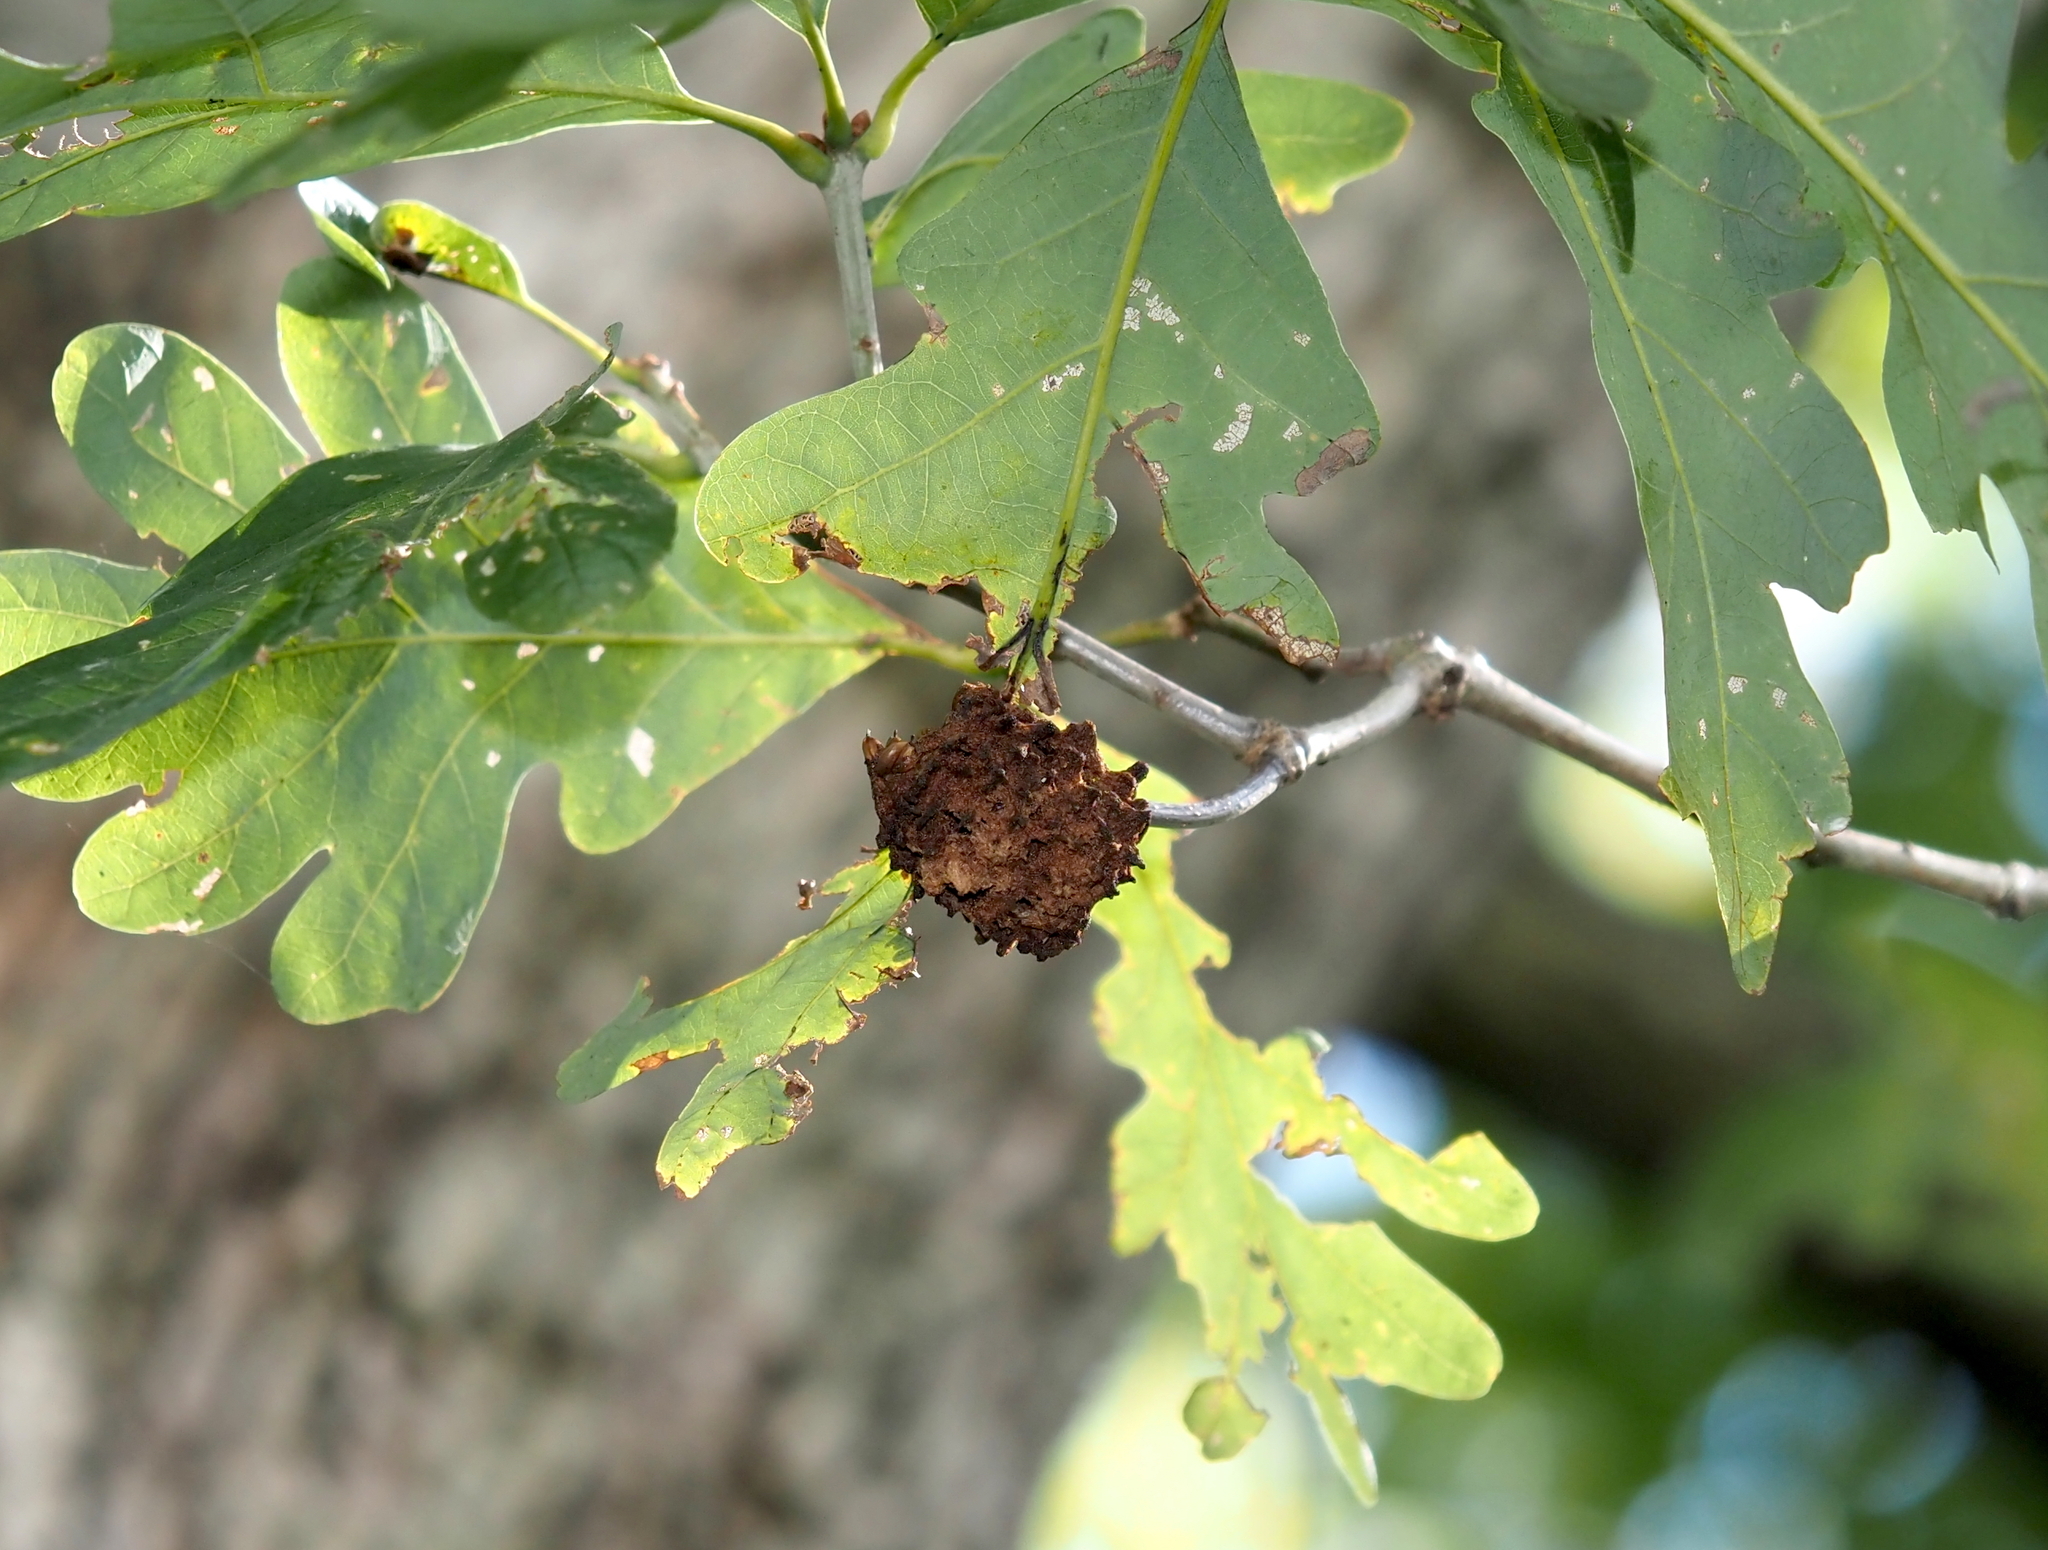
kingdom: Animalia
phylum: Arthropoda
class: Insecta
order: Hymenoptera
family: Cynipidae
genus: Callirhytis
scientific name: Callirhytis
